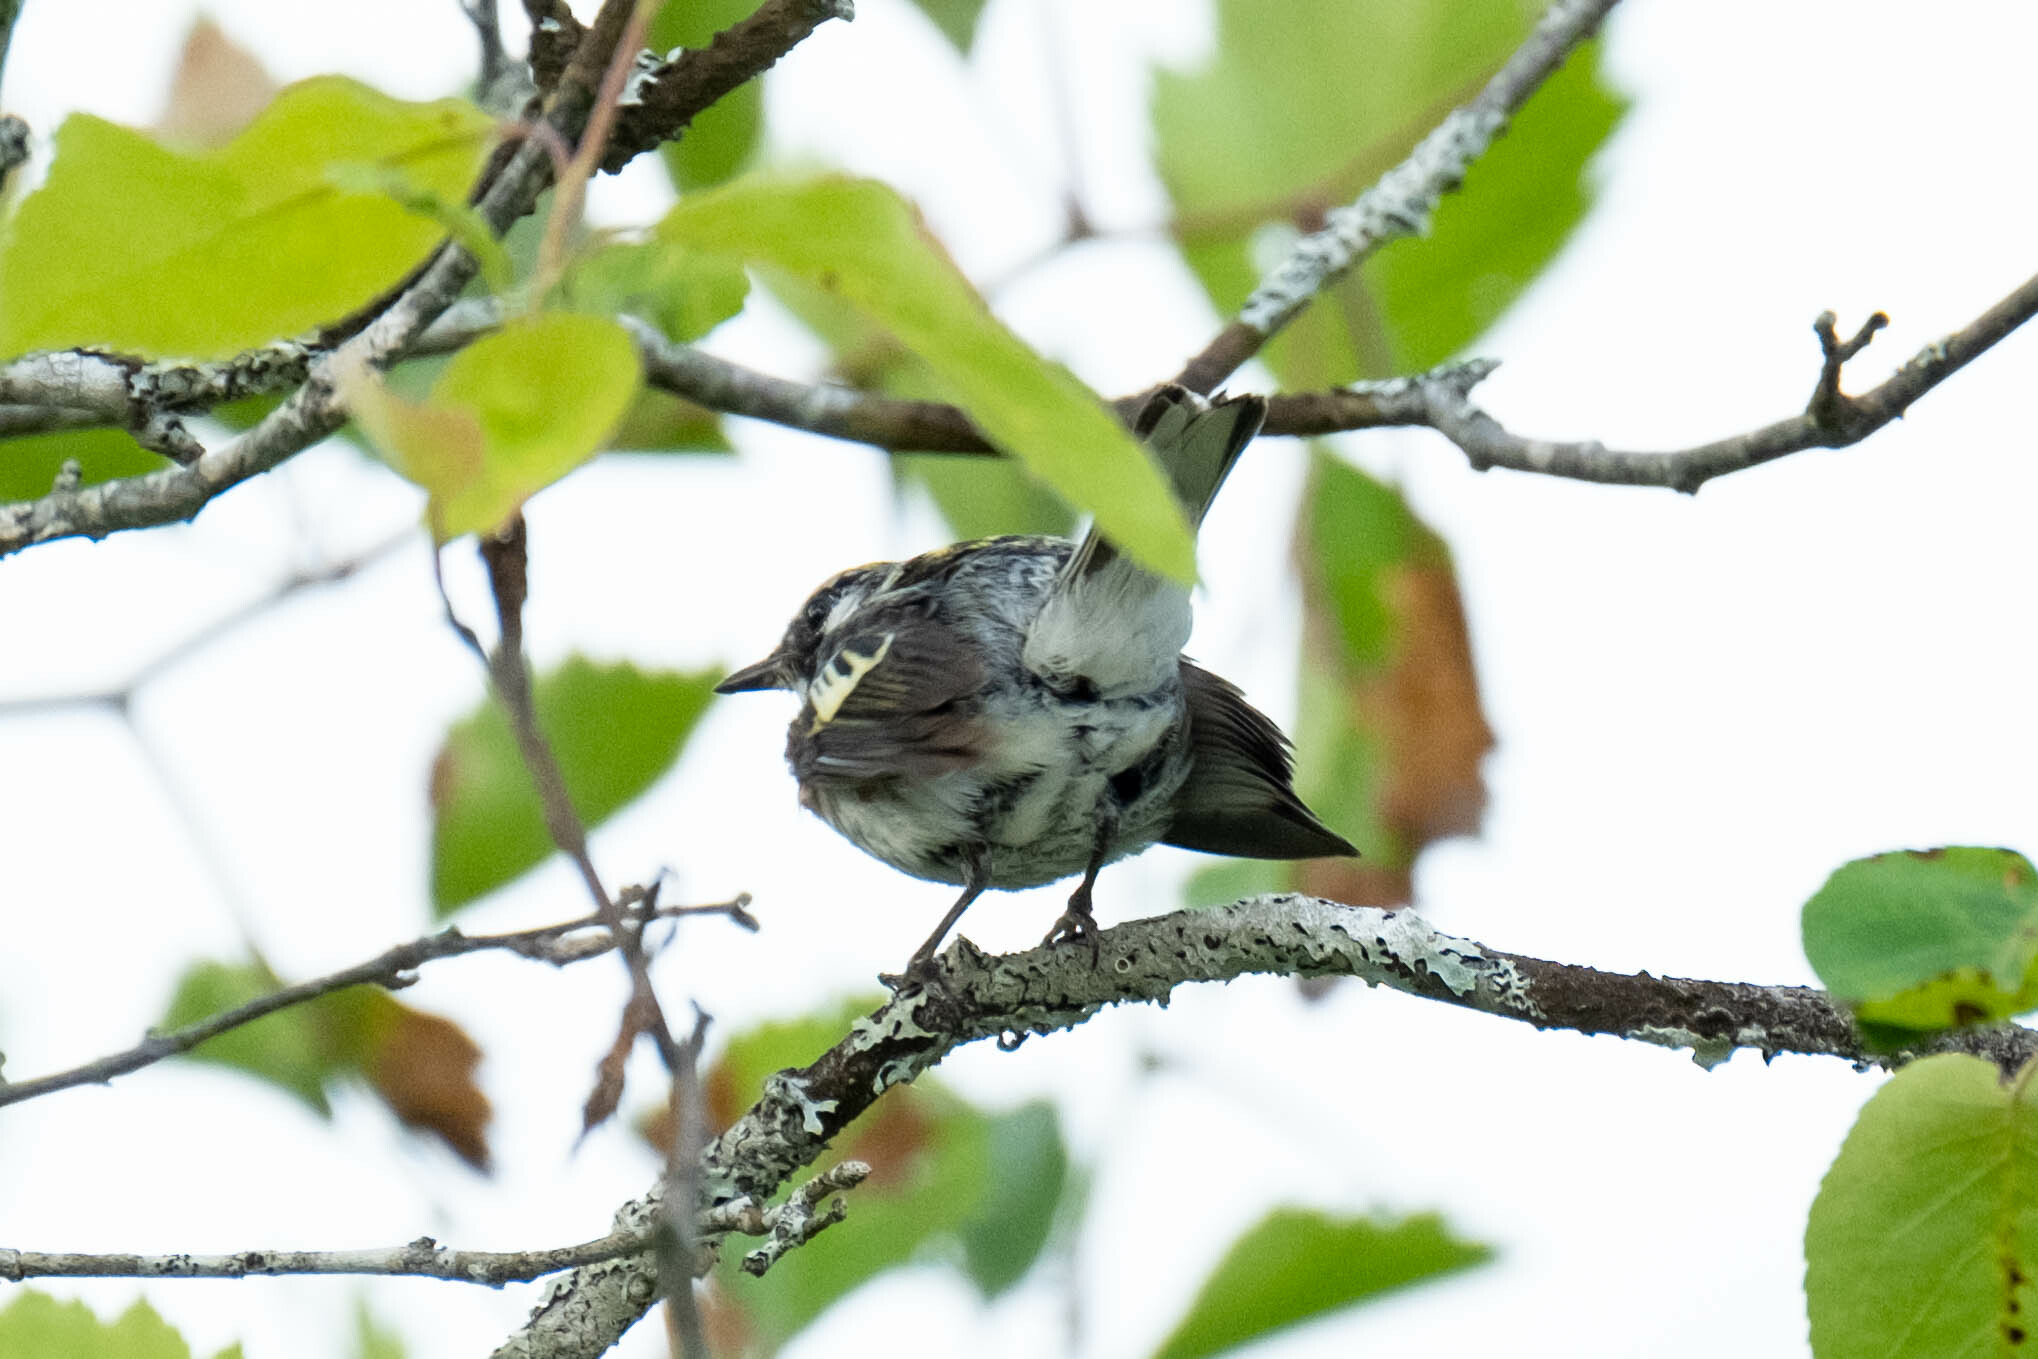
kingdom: Animalia
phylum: Chordata
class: Aves
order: Passeriformes
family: Parulidae
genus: Setophaga
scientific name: Setophaga pensylvanica
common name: Chestnut-sided warbler
